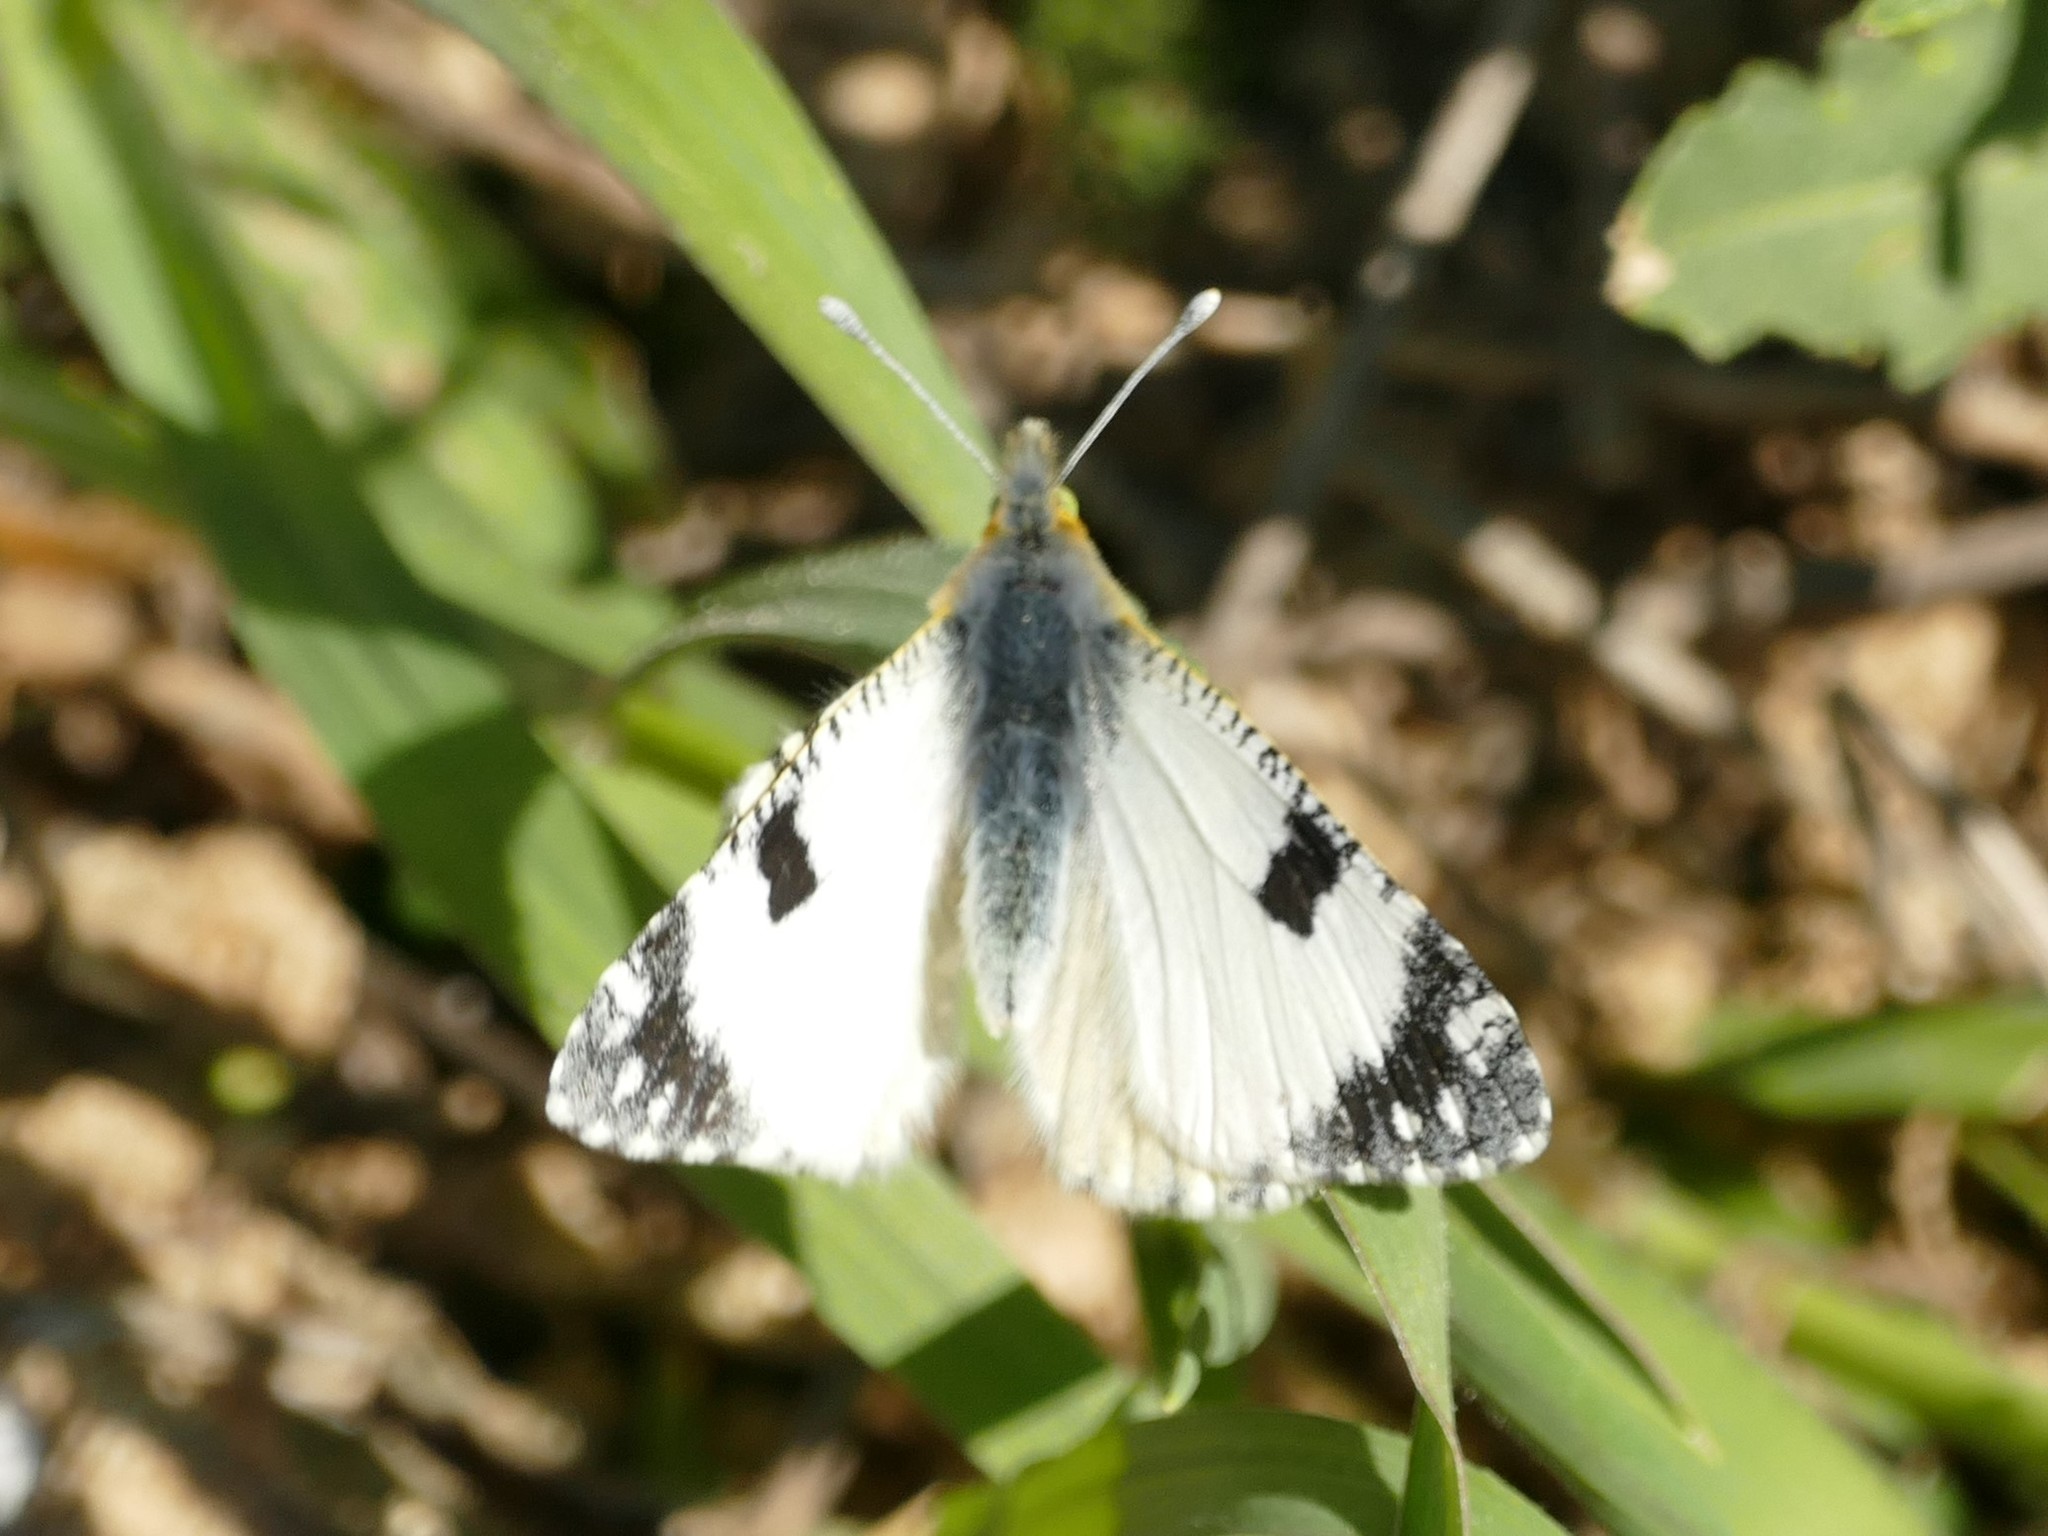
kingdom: Animalia
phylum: Arthropoda
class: Insecta
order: Lepidoptera
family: Pieridae
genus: Euchloe
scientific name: Euchloe crameri
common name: Western dappled white
